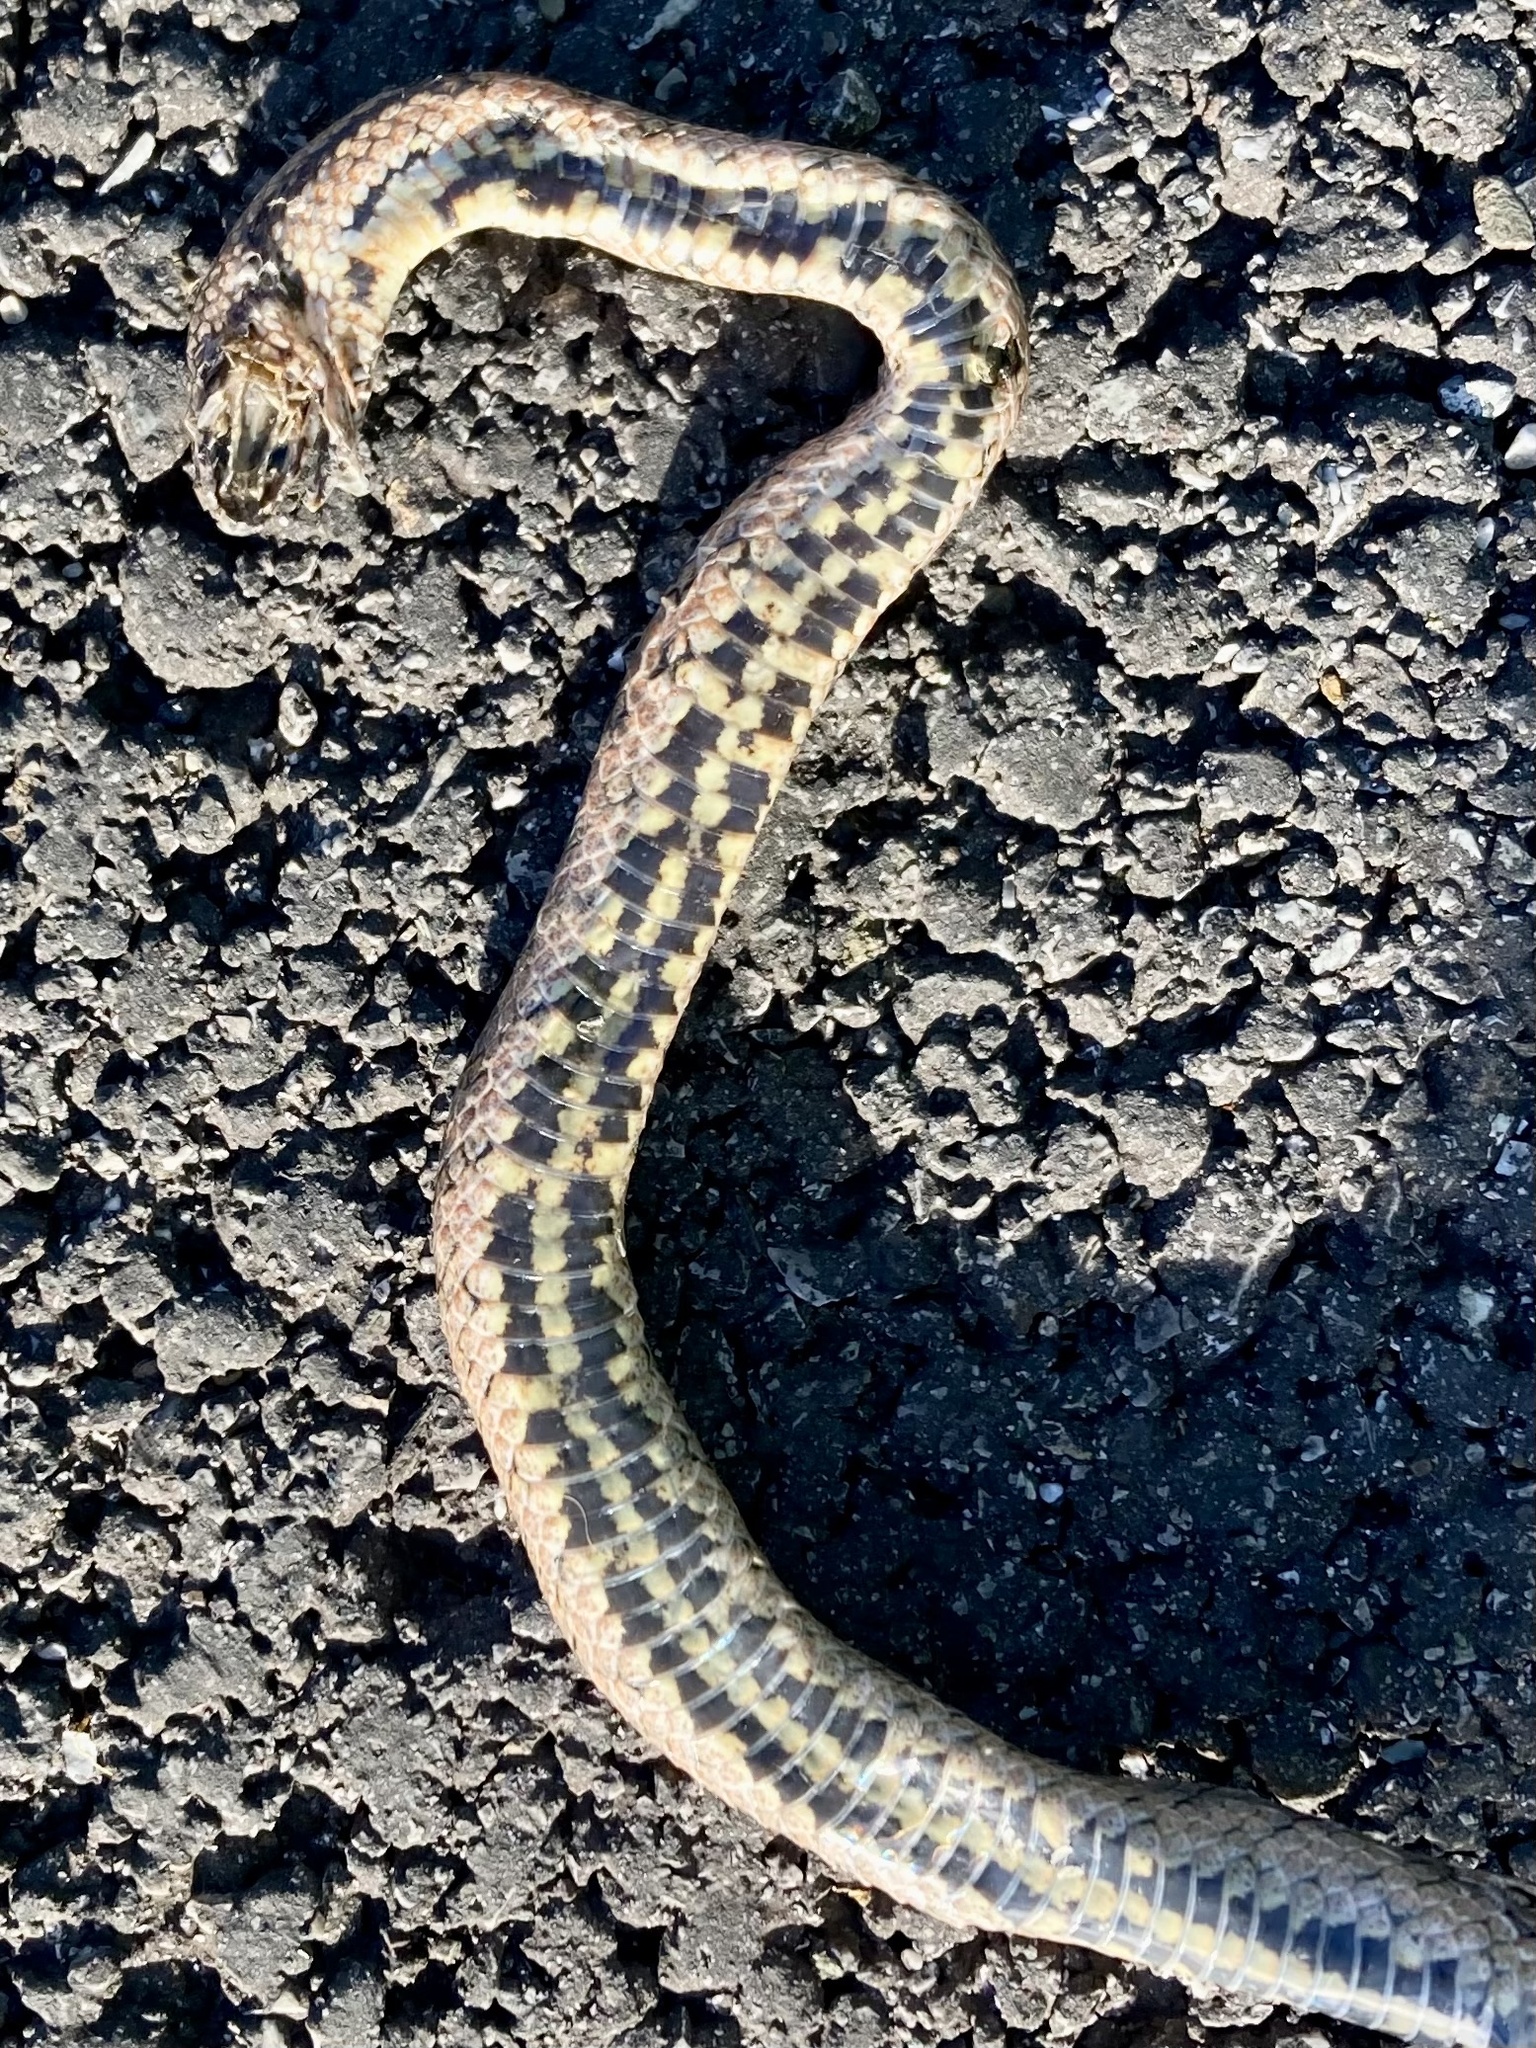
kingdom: Animalia
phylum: Chordata
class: Squamata
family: Colubridae
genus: Coronella
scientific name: Coronella girondica
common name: Southern smooth snake
